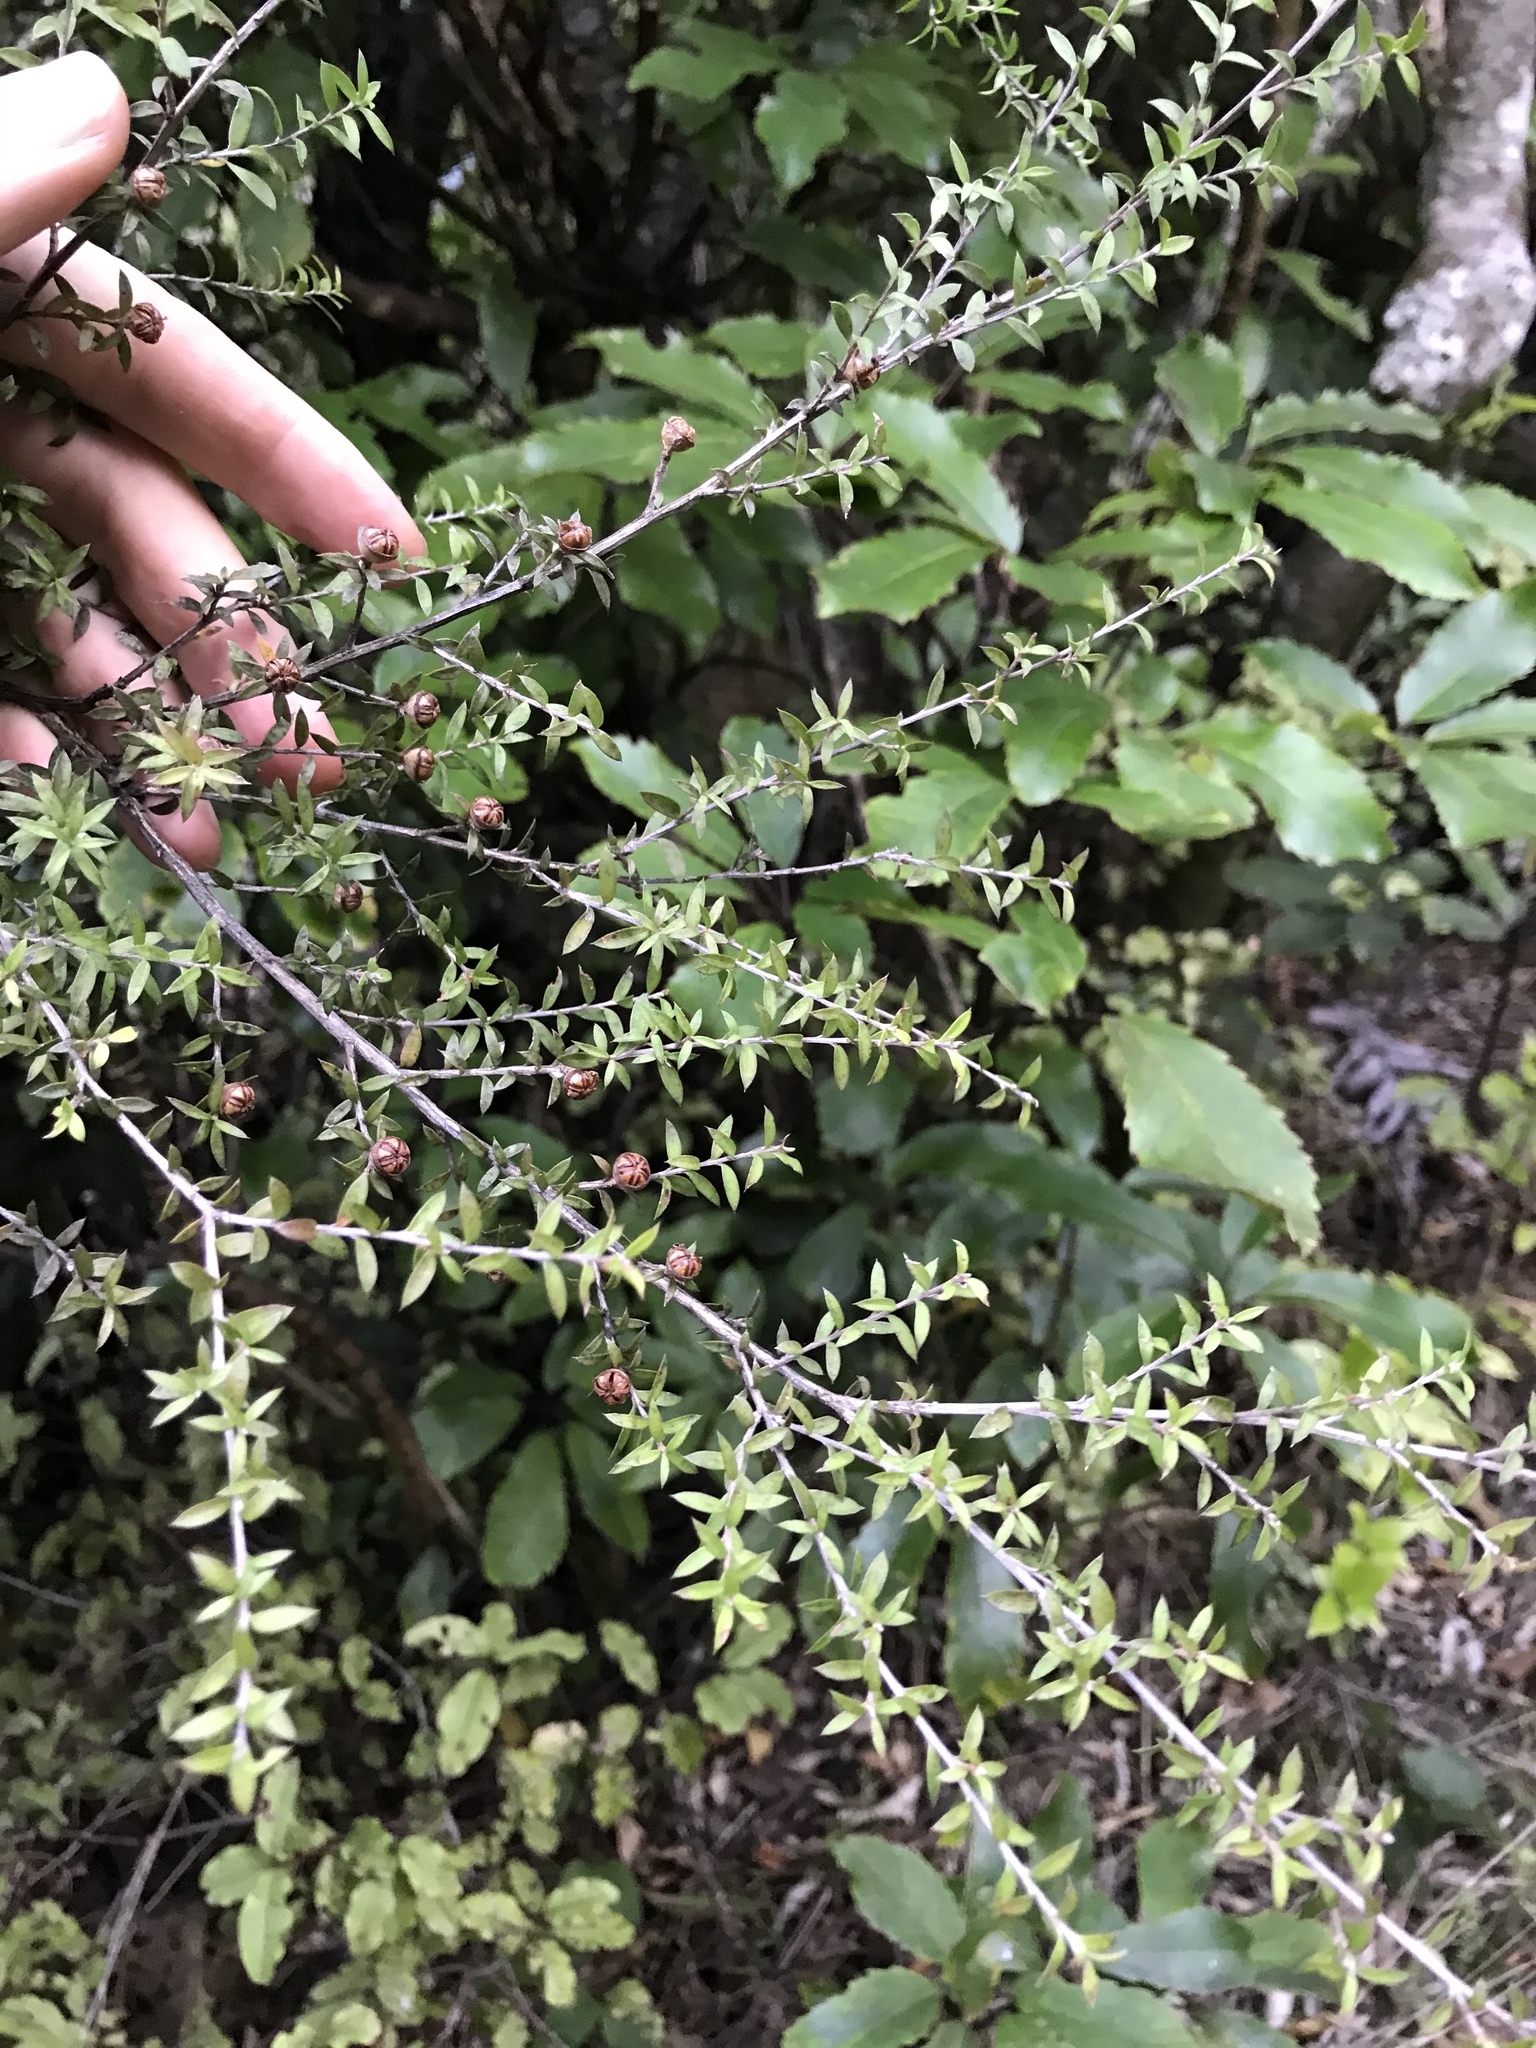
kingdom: Plantae
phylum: Tracheophyta
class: Magnoliopsida
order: Myrtales
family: Myrtaceae
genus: Leptospermum
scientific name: Leptospermum scoparium
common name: Broom tea-tree
